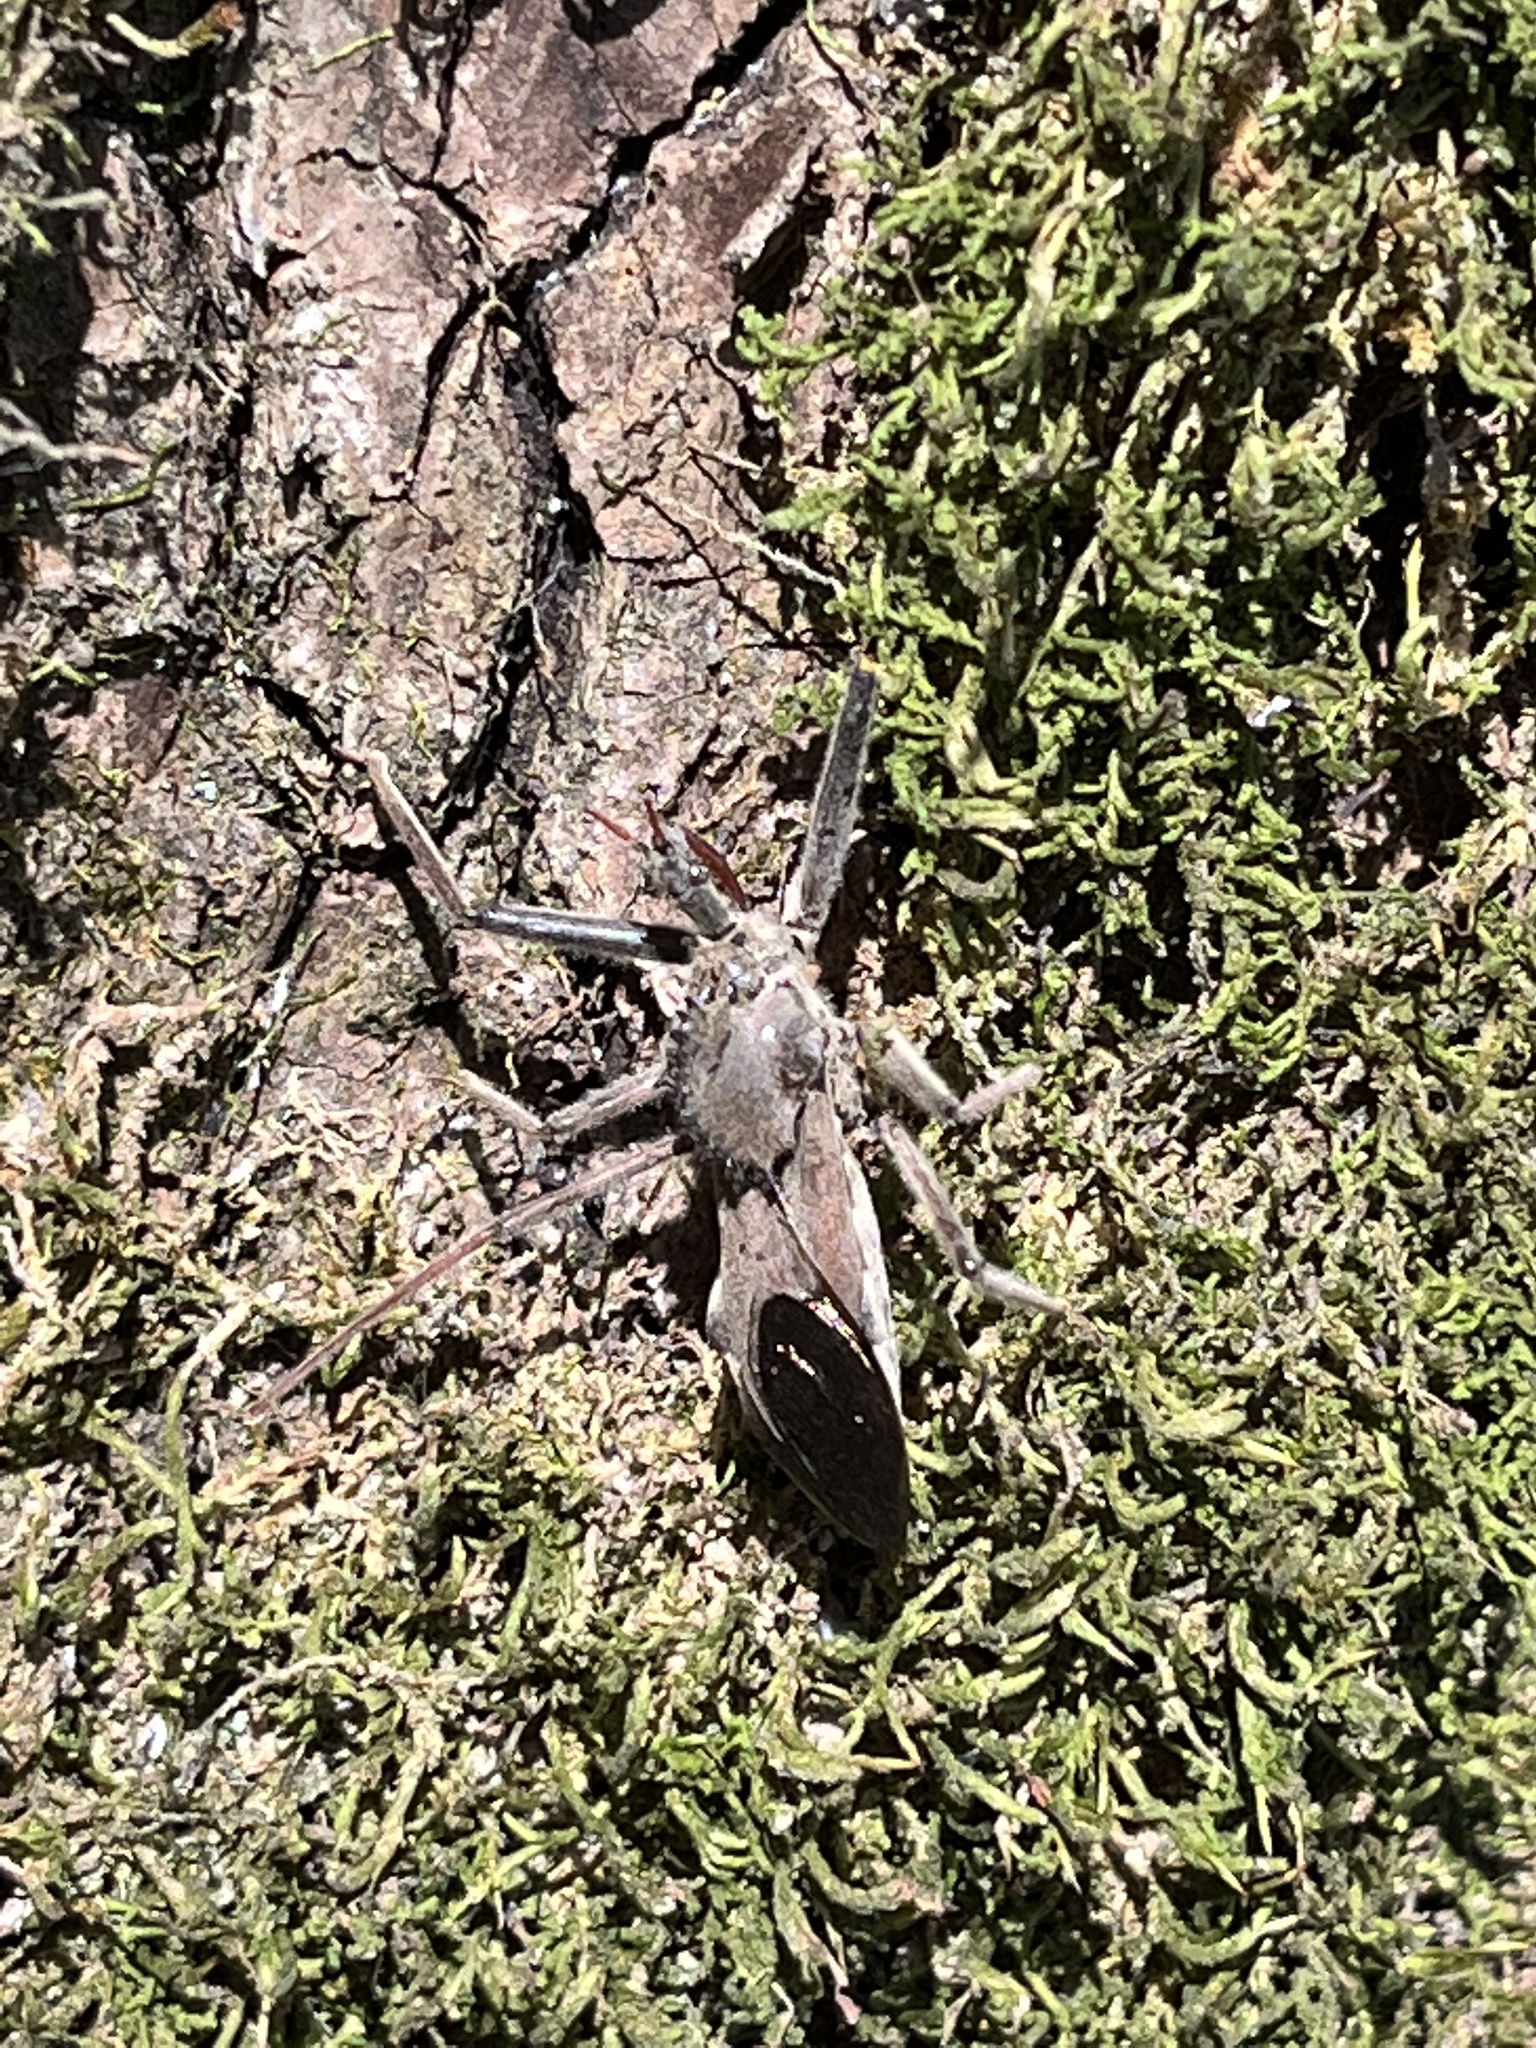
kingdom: Animalia
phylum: Arthropoda
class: Insecta
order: Hemiptera
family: Reduviidae
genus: Arilus
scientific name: Arilus cristatus
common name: North american wheel bug
